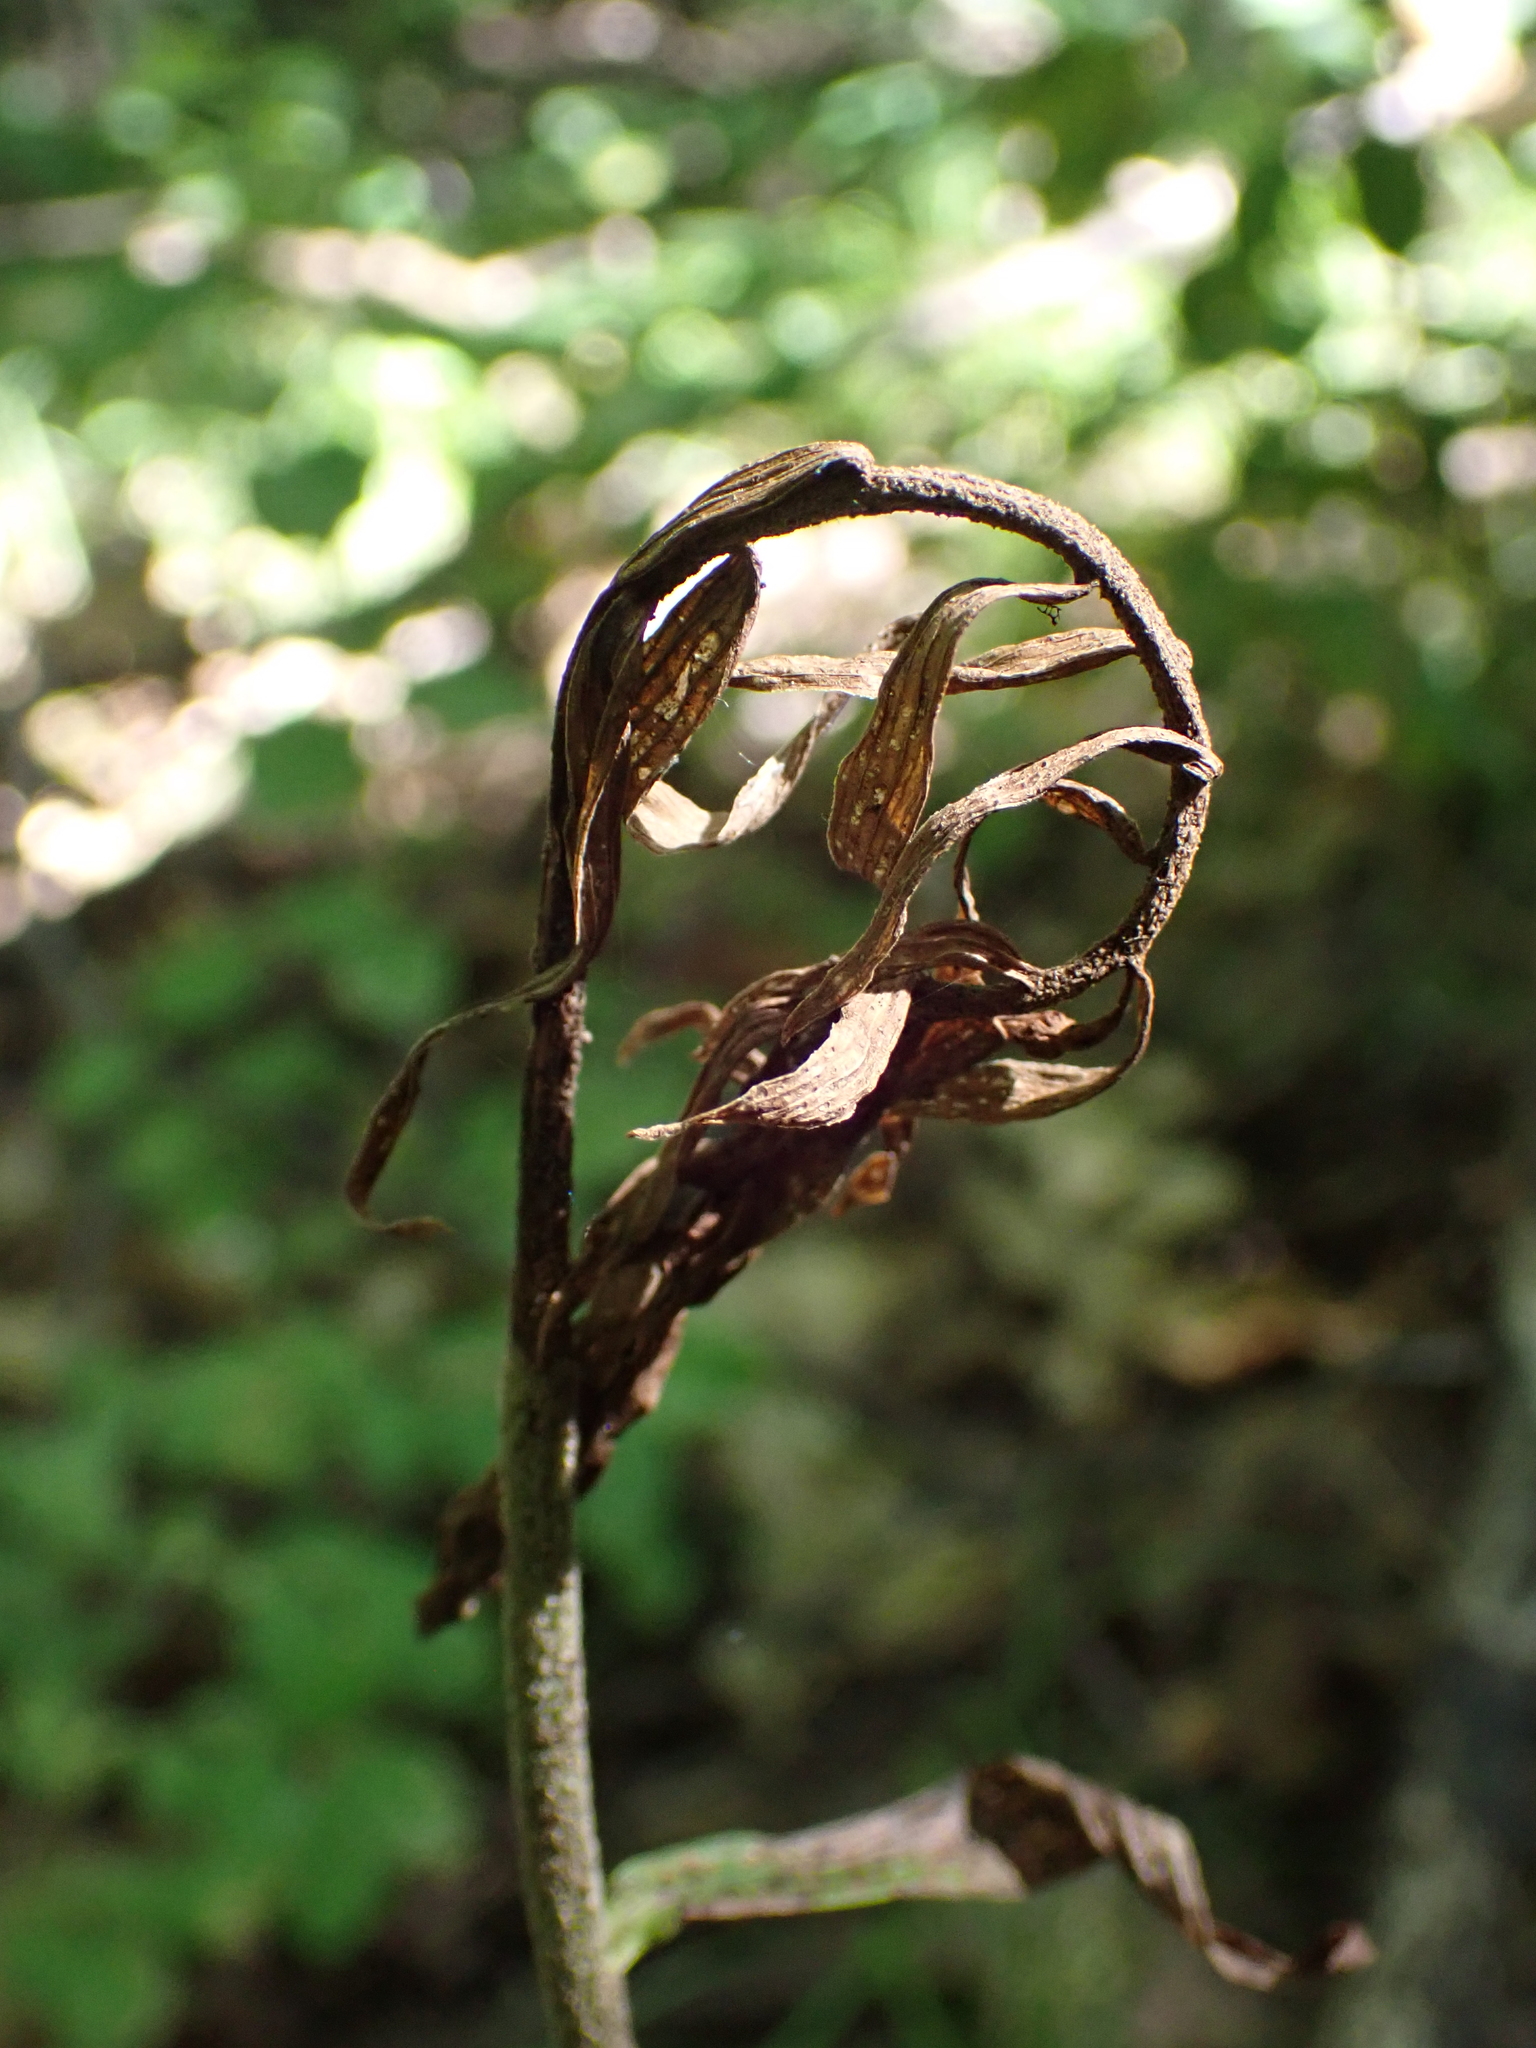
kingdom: Plantae
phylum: Tracheophyta
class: Liliopsida
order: Asparagales
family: Orchidaceae
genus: Epipactis
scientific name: Epipactis helleborine
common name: Broad-leaved helleborine
